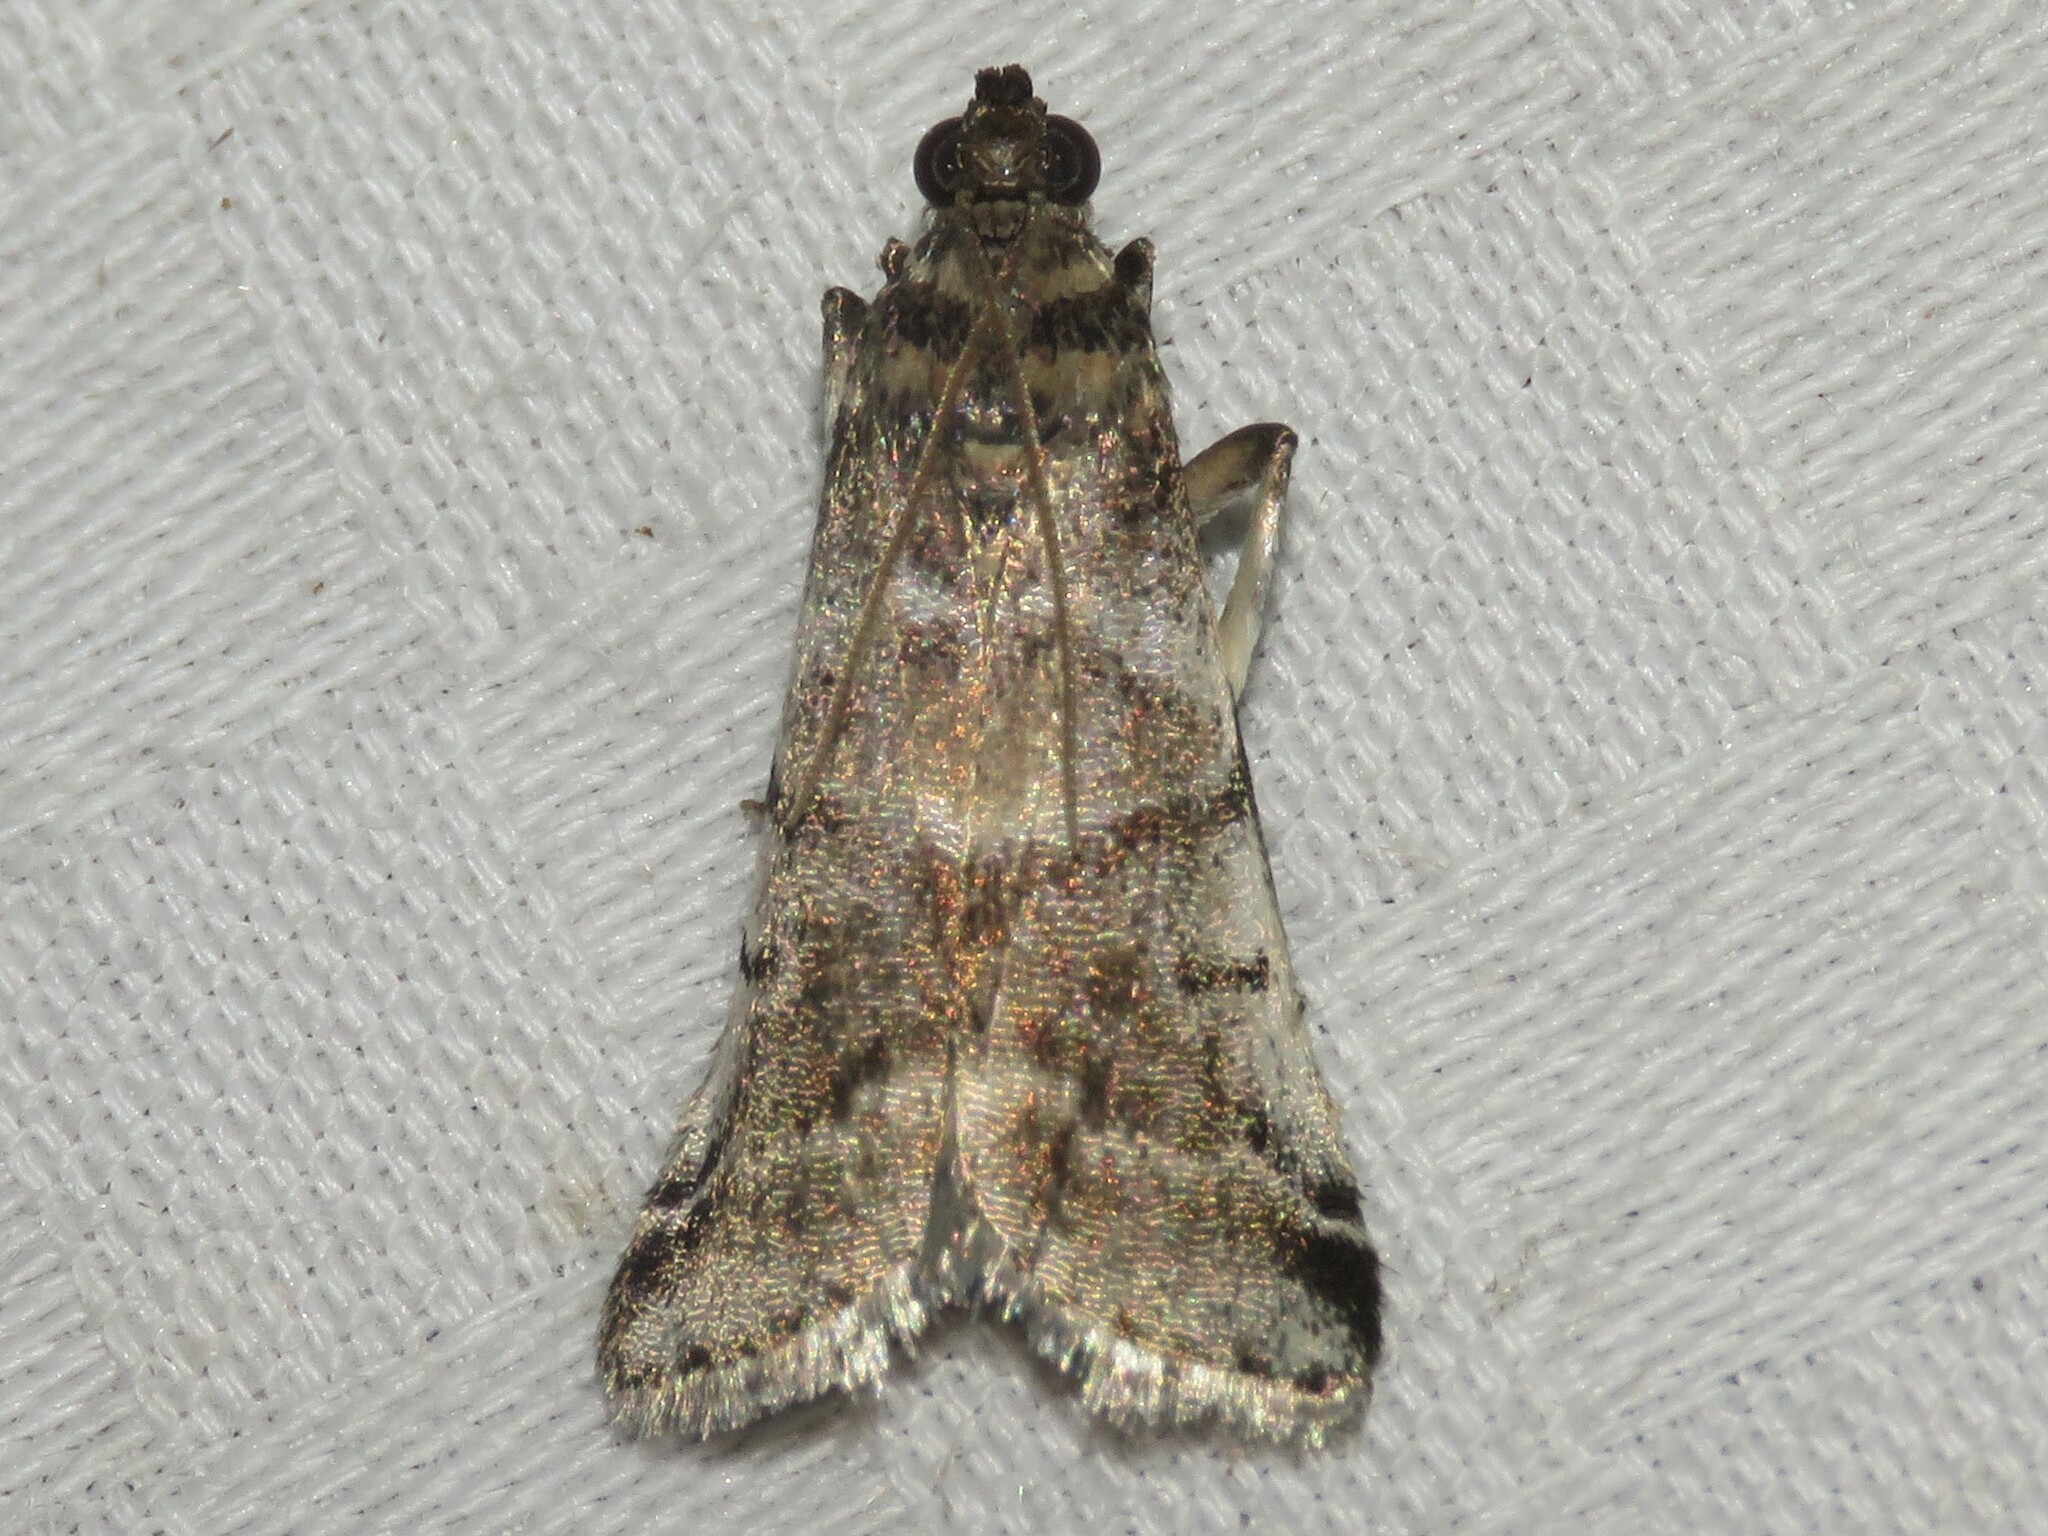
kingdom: Animalia
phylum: Arthropoda
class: Insecta
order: Lepidoptera
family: Pyralidae
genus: Acrobasis
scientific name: Acrobasis indigenella
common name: Leaf crumpler moth
